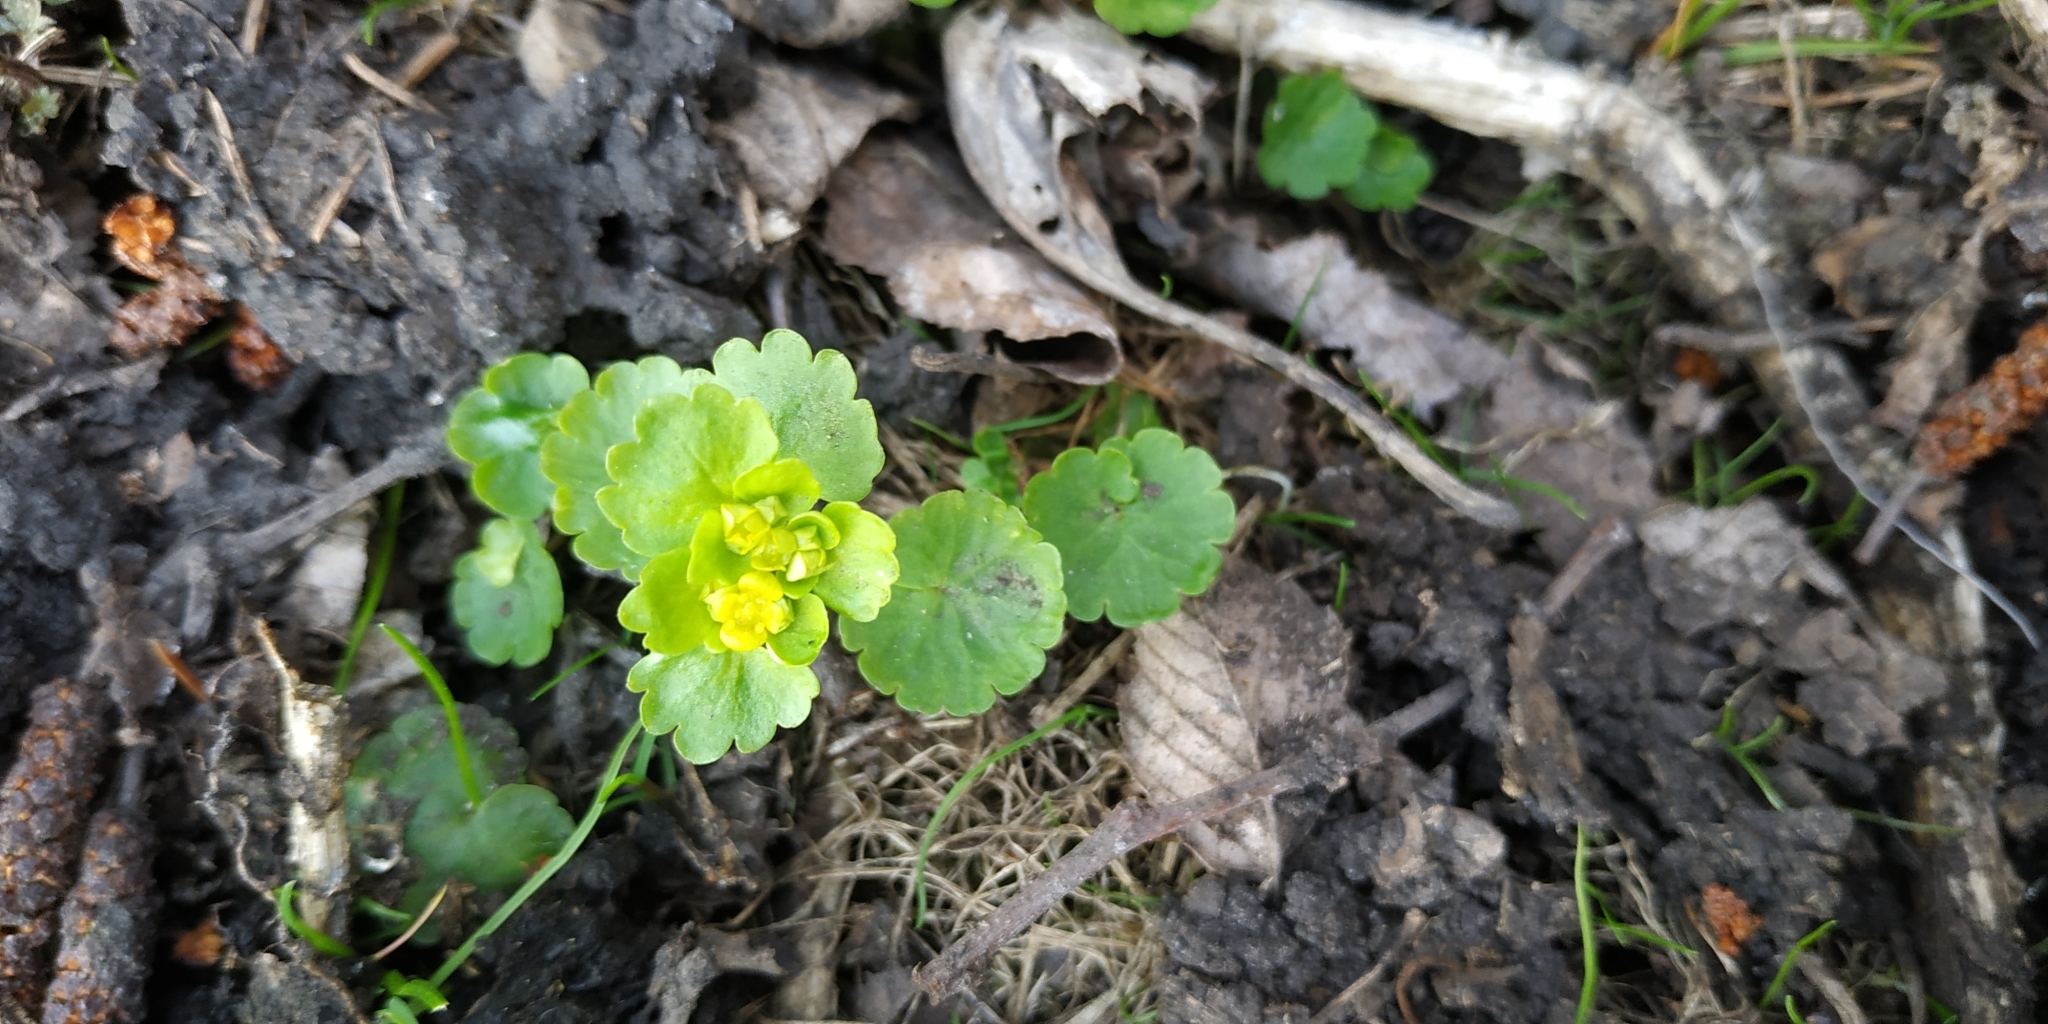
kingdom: Plantae
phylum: Tracheophyta
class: Magnoliopsida
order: Saxifragales
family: Saxifragaceae
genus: Chrysosplenium
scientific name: Chrysosplenium alternifolium
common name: Alternate-leaved golden-saxifrage
